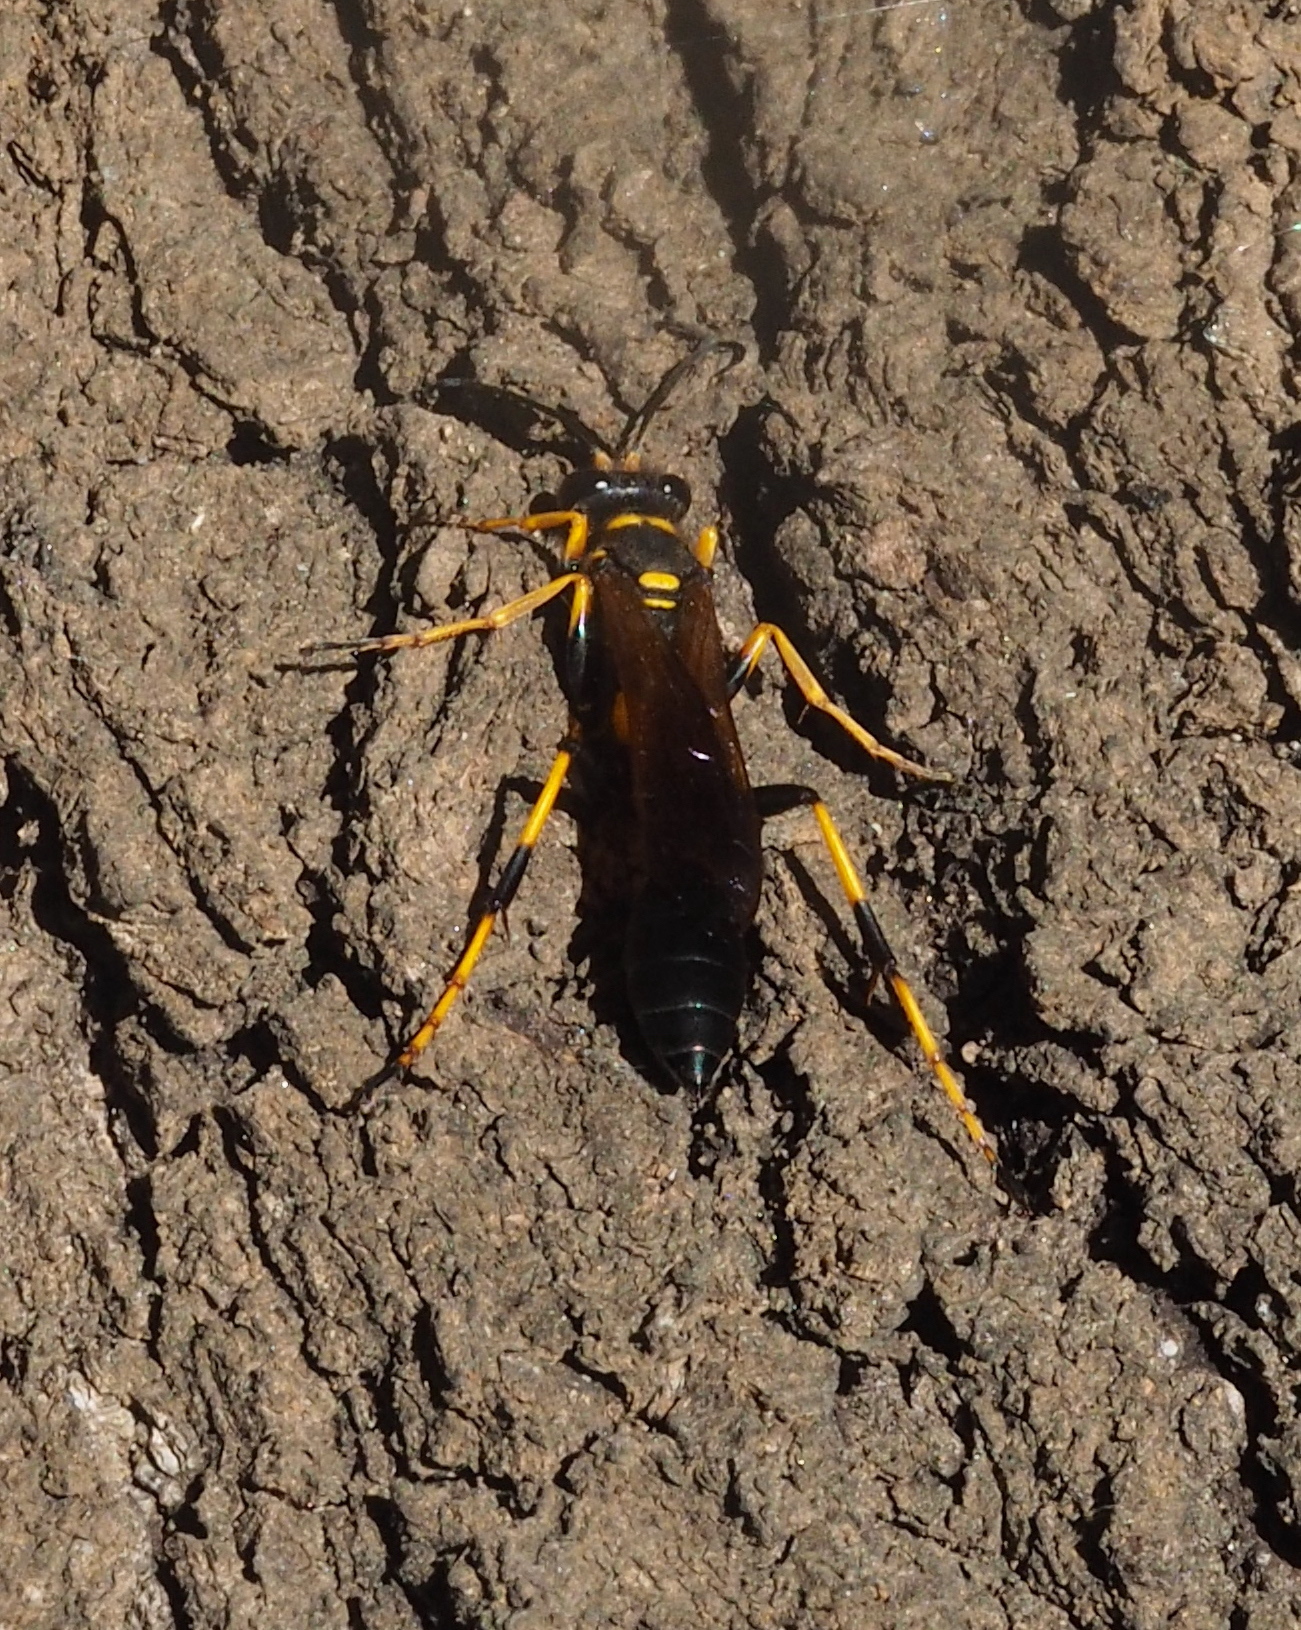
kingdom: Animalia
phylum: Arthropoda
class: Insecta
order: Hymenoptera
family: Sphecidae
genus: Sceliphron
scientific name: Sceliphron caementarium
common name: Mud dauber
